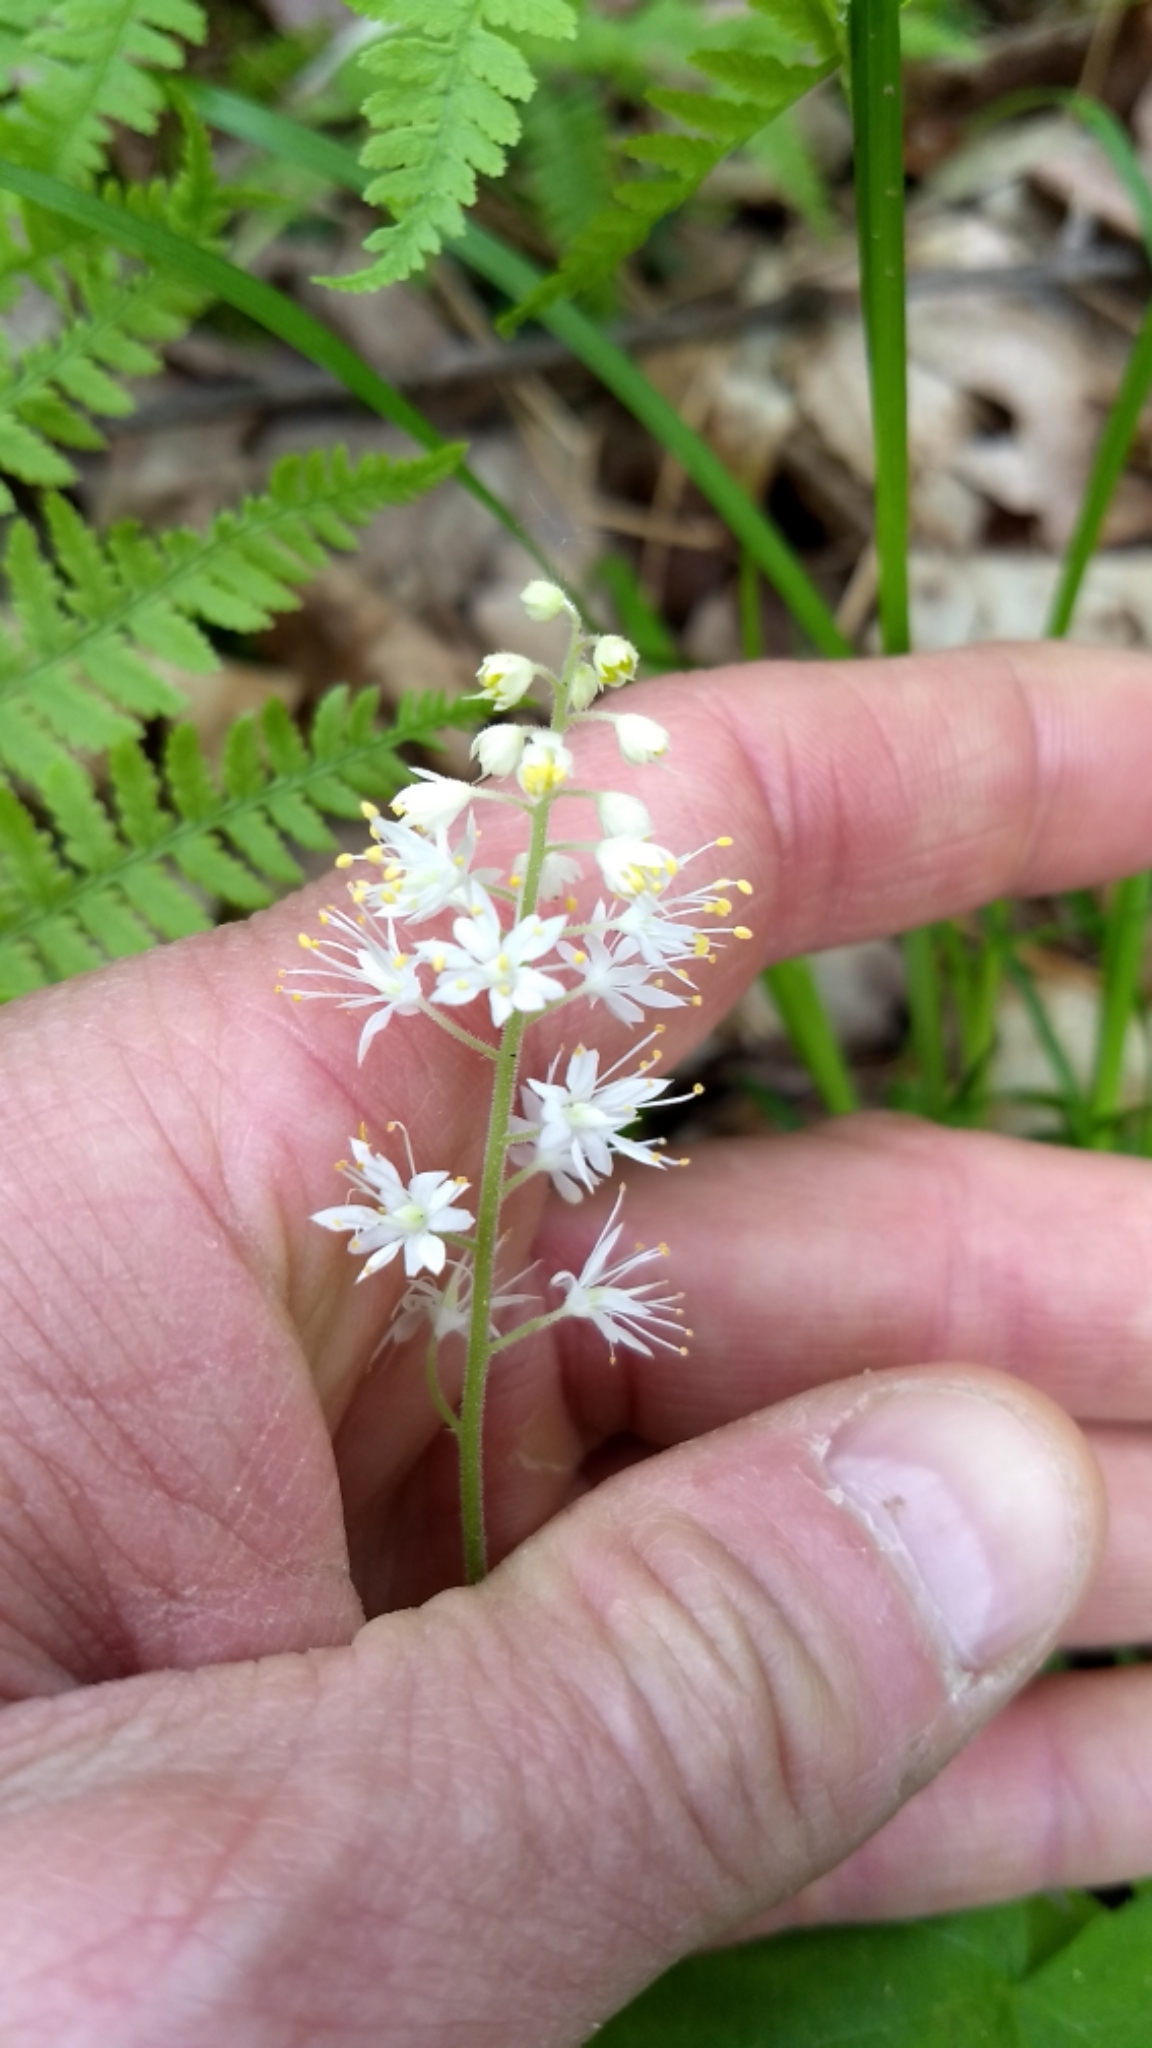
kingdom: Plantae
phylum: Tracheophyta
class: Magnoliopsida
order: Saxifragales
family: Saxifragaceae
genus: Tiarella
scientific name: Tiarella stolonifera
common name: Stoloniferous foamflower
